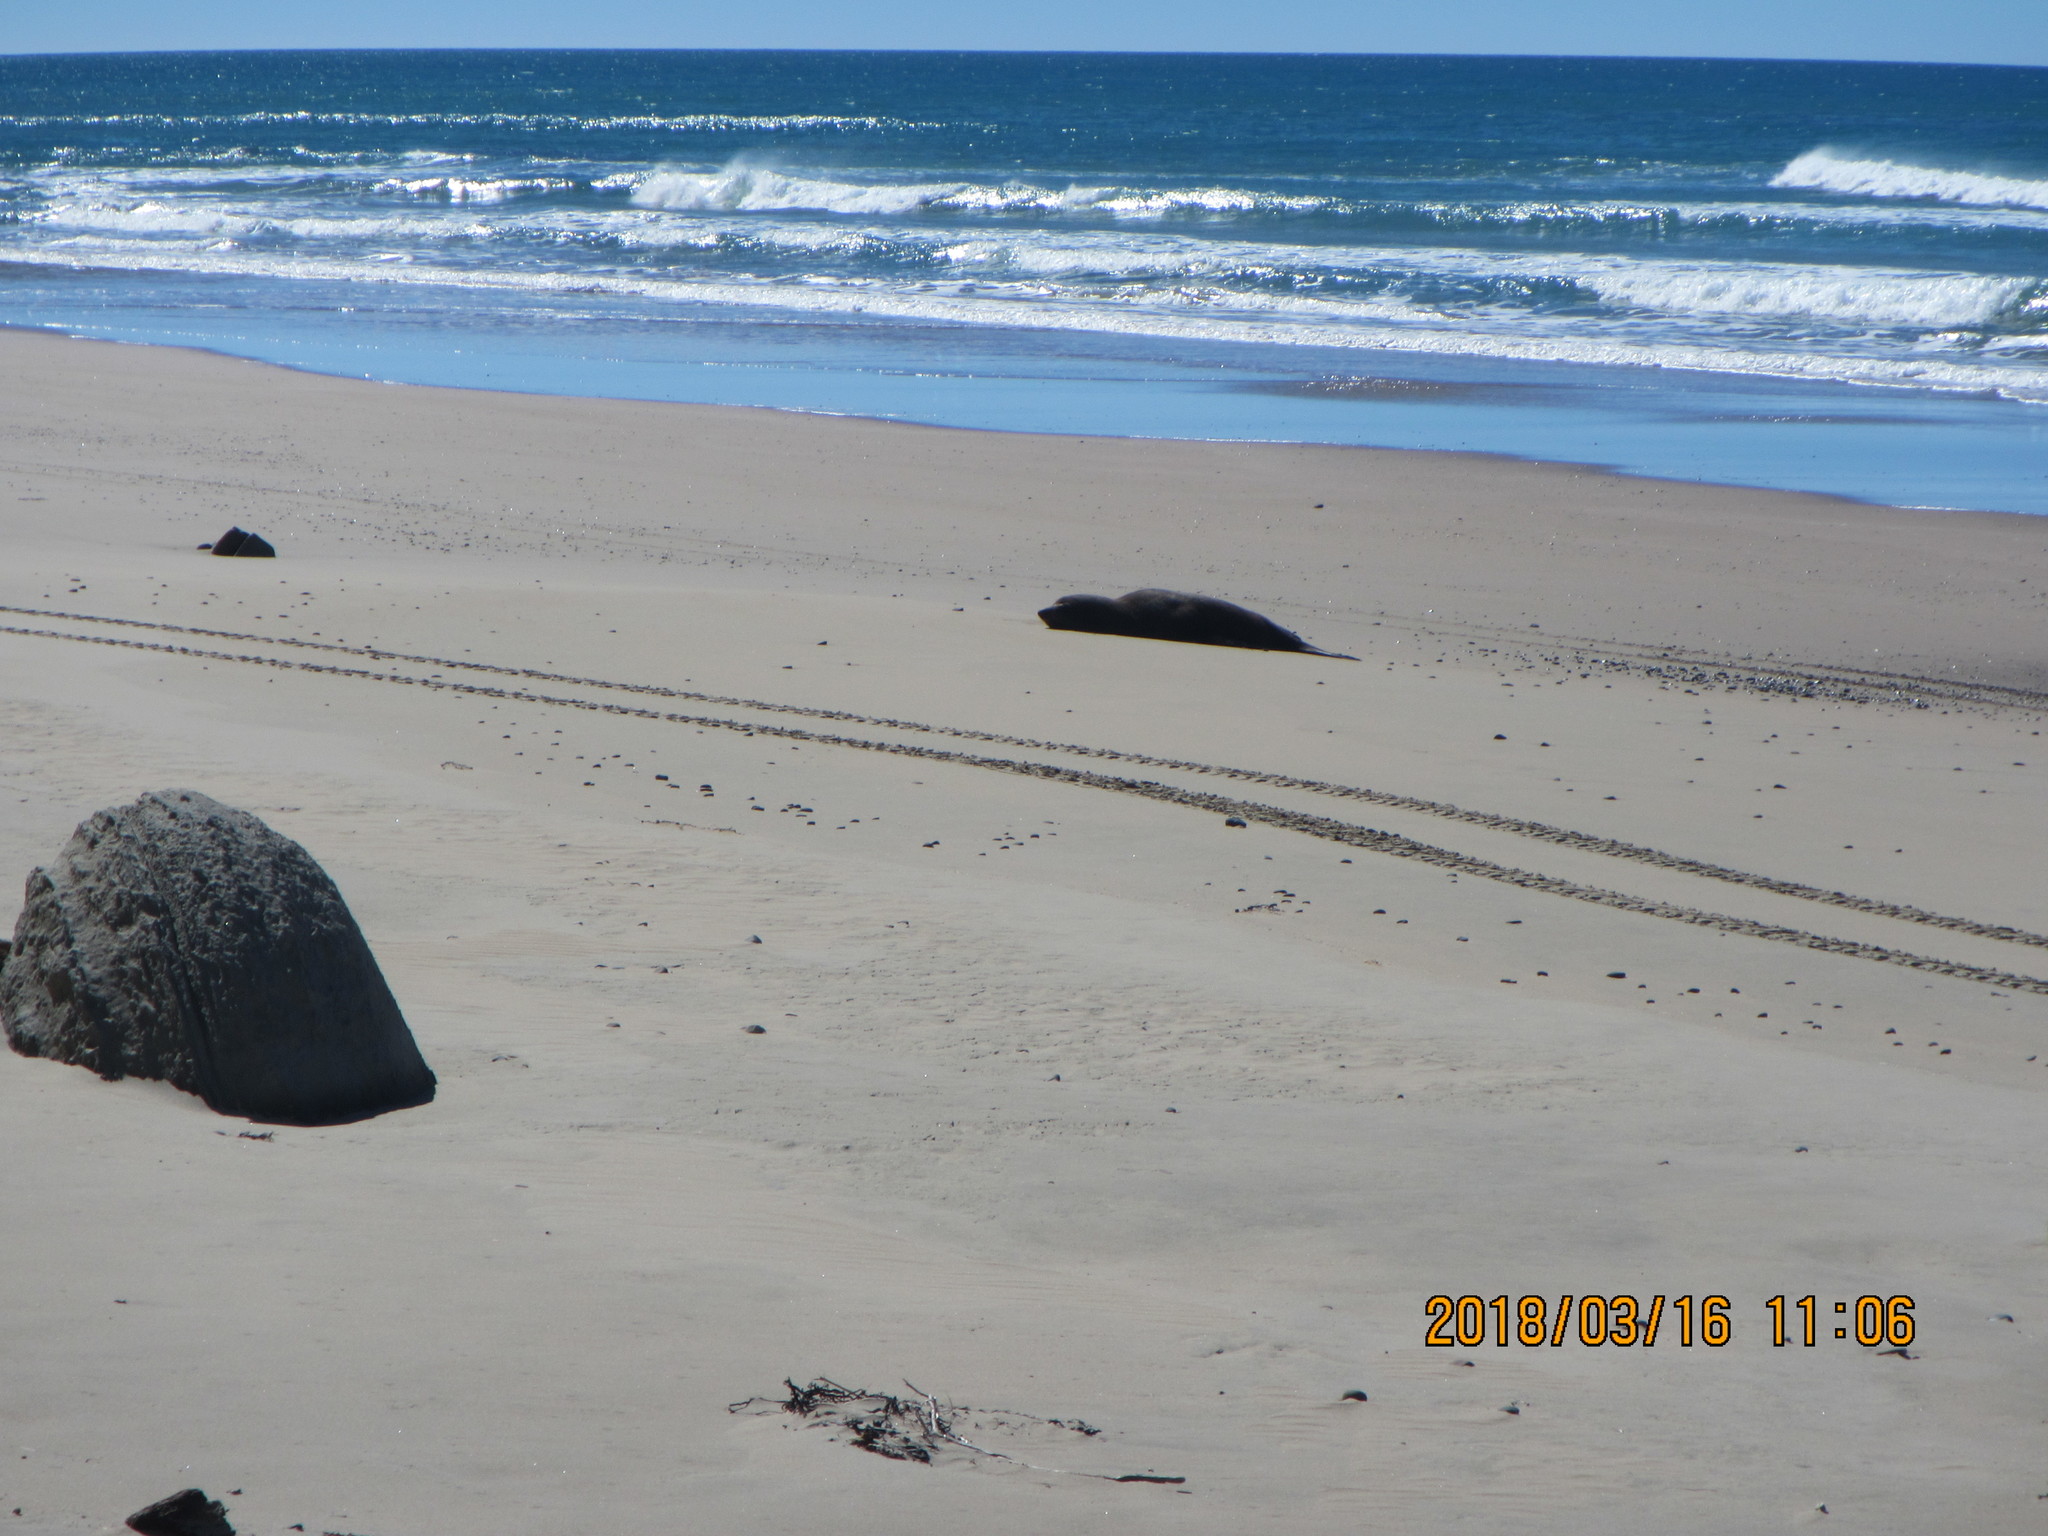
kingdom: Animalia
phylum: Chordata
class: Mammalia
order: Carnivora
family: Otariidae
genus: Arctocephalus
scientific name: Arctocephalus forsteri
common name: New zealand fur seal
